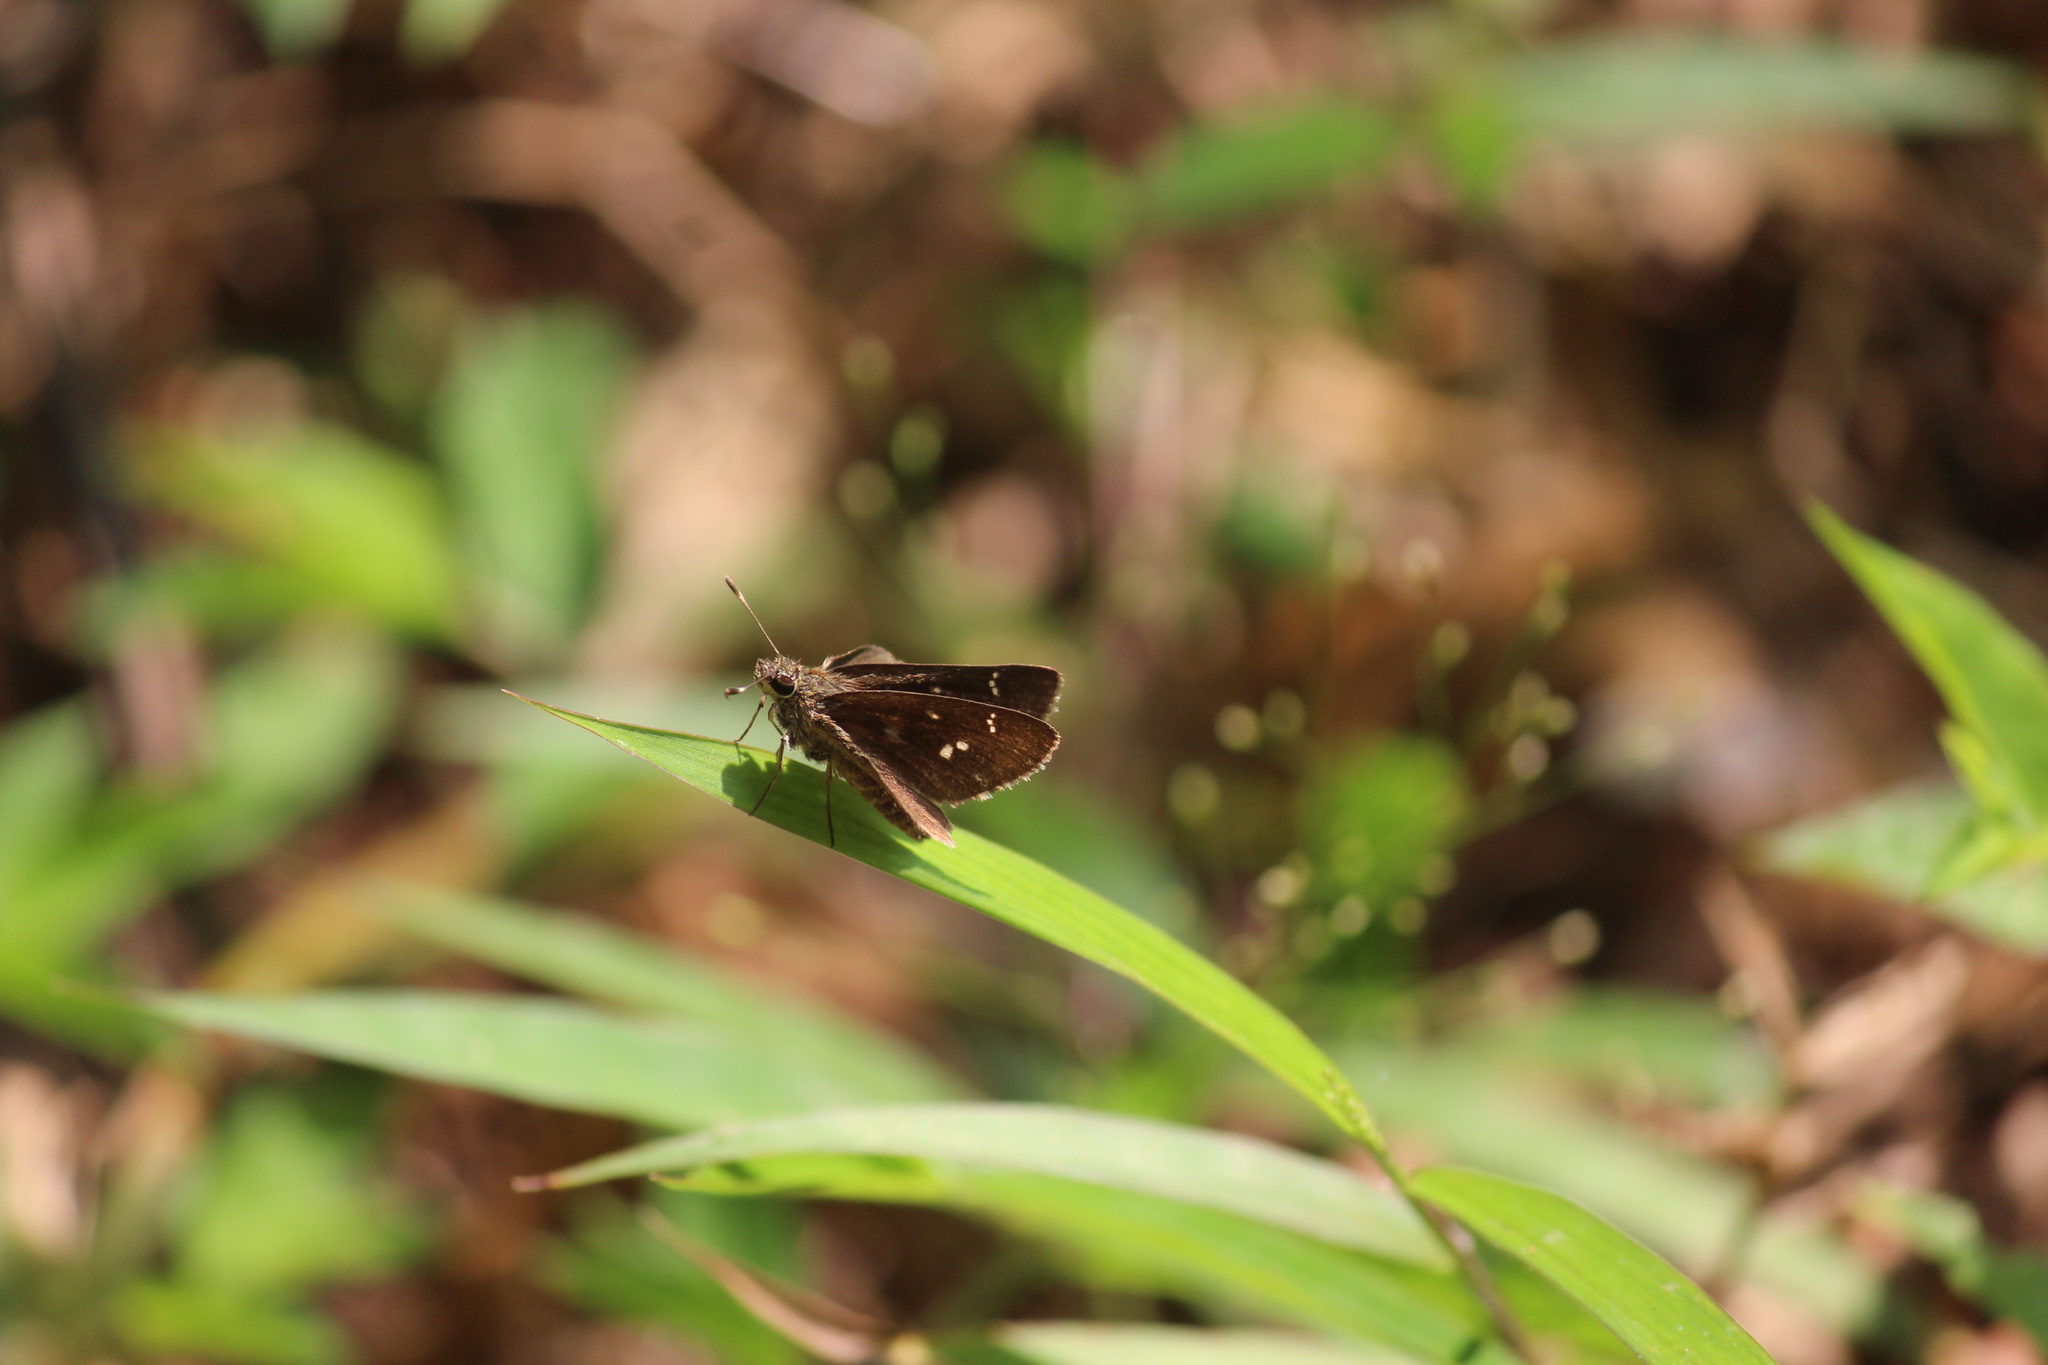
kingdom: Animalia
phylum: Arthropoda
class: Insecta
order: Lepidoptera
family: Hesperiidae
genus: Arnetta
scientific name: Arnetta vindhiana
